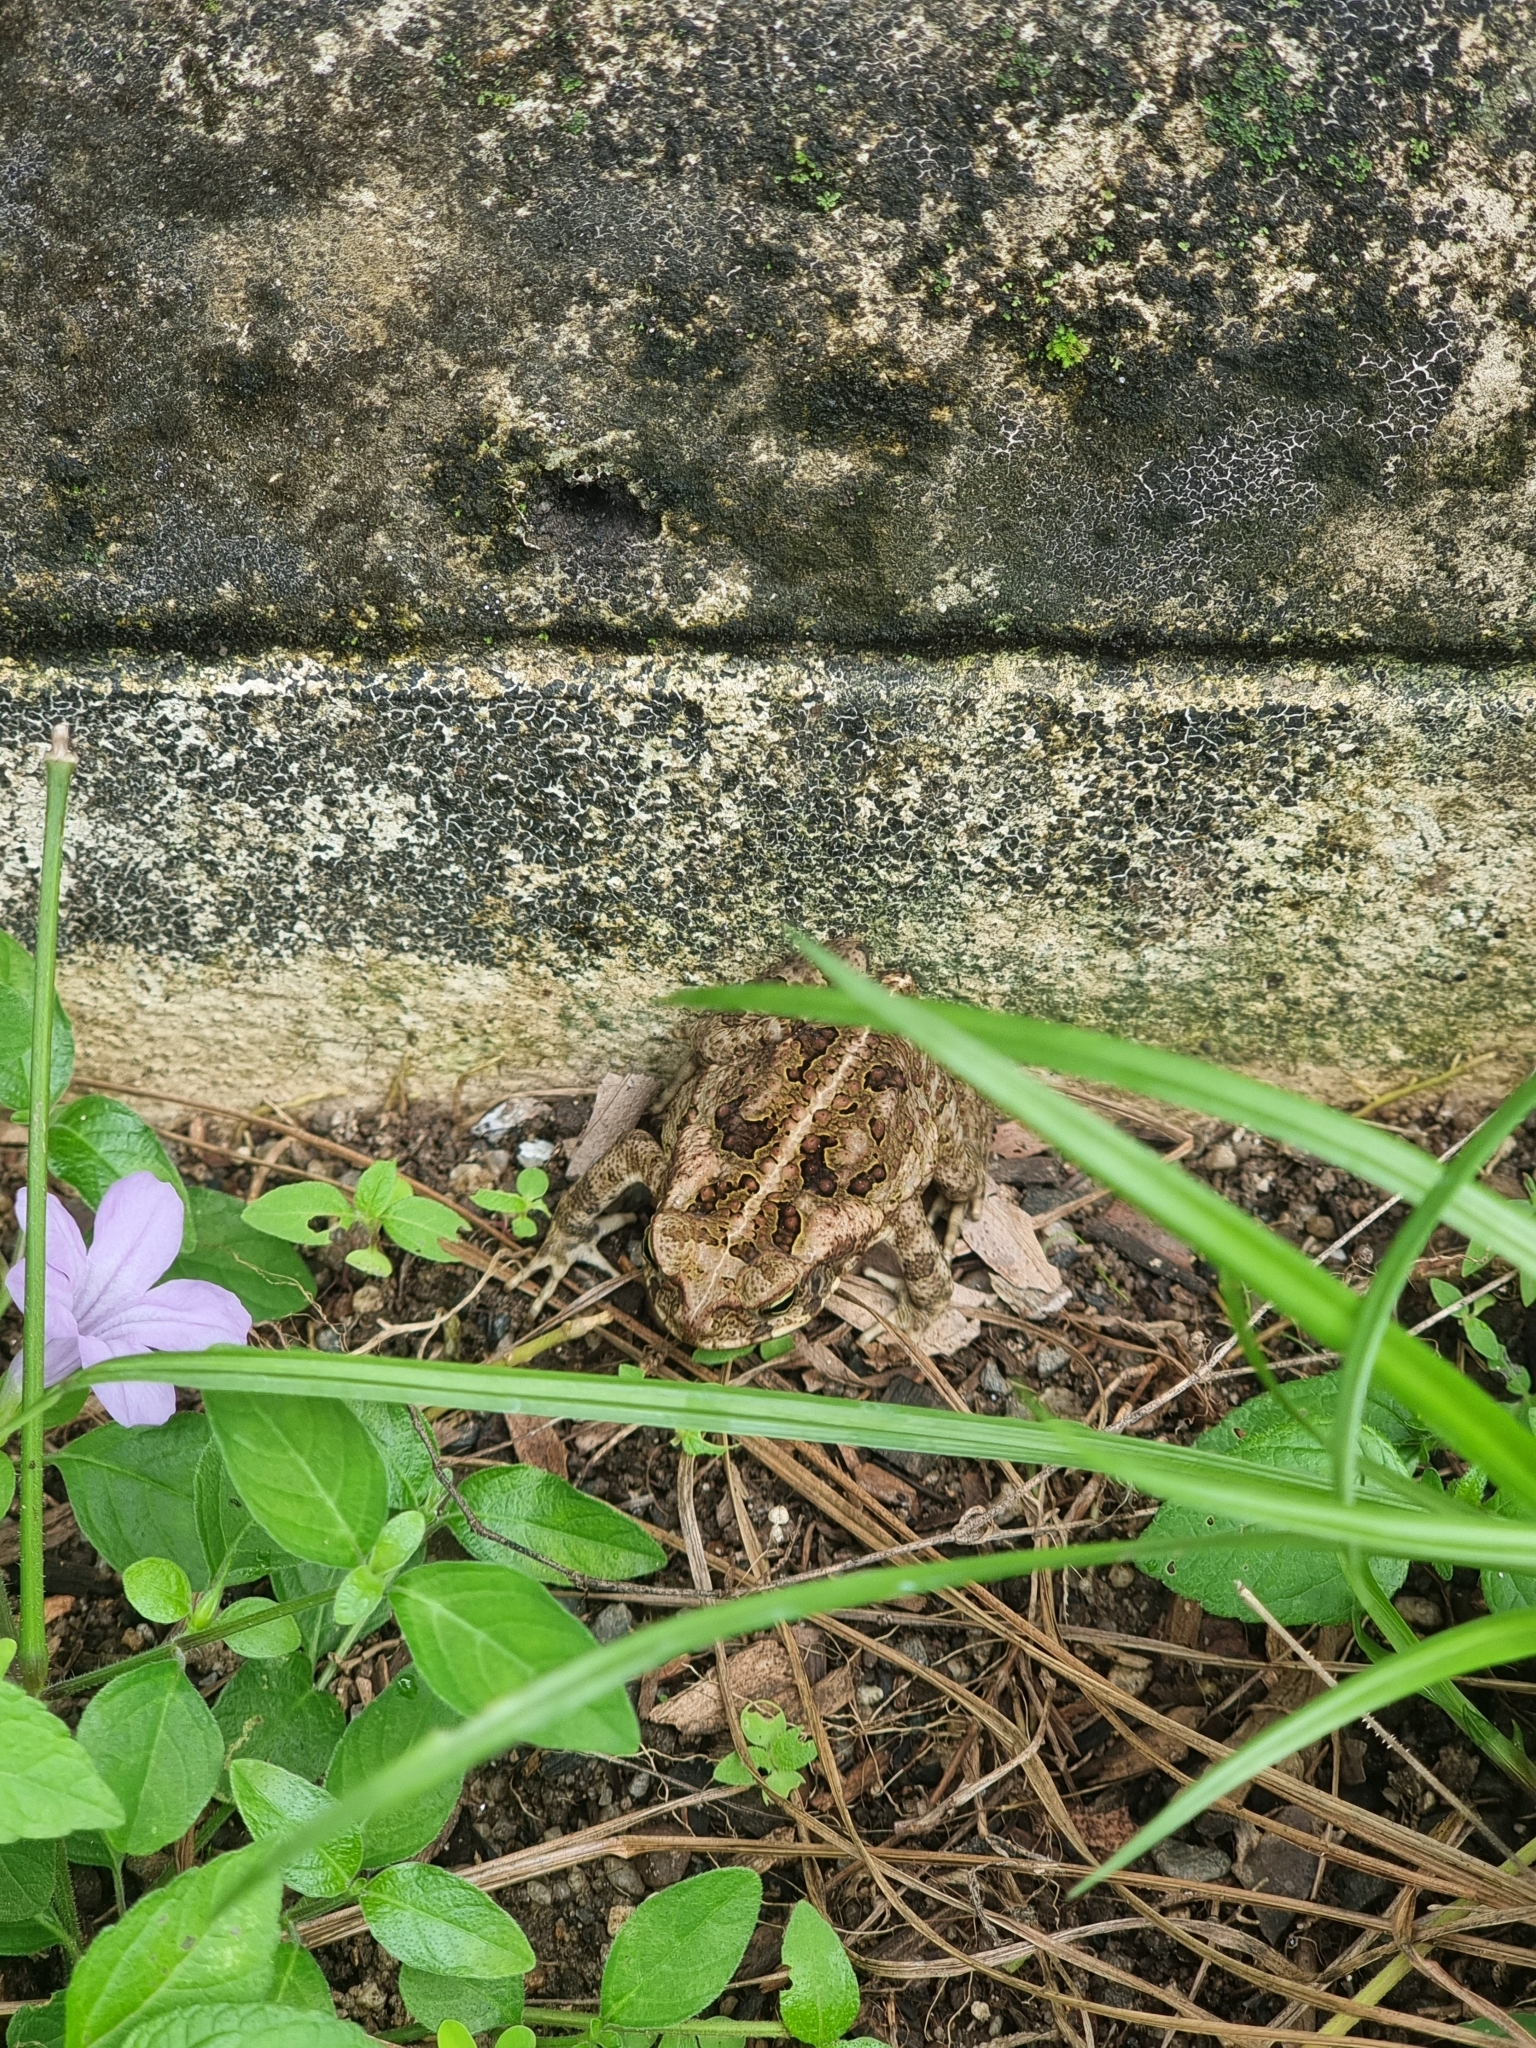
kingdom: Animalia
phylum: Chordata
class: Amphibia
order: Anura
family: Bufonidae
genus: Rhinella
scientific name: Rhinella marina
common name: Cane toad
